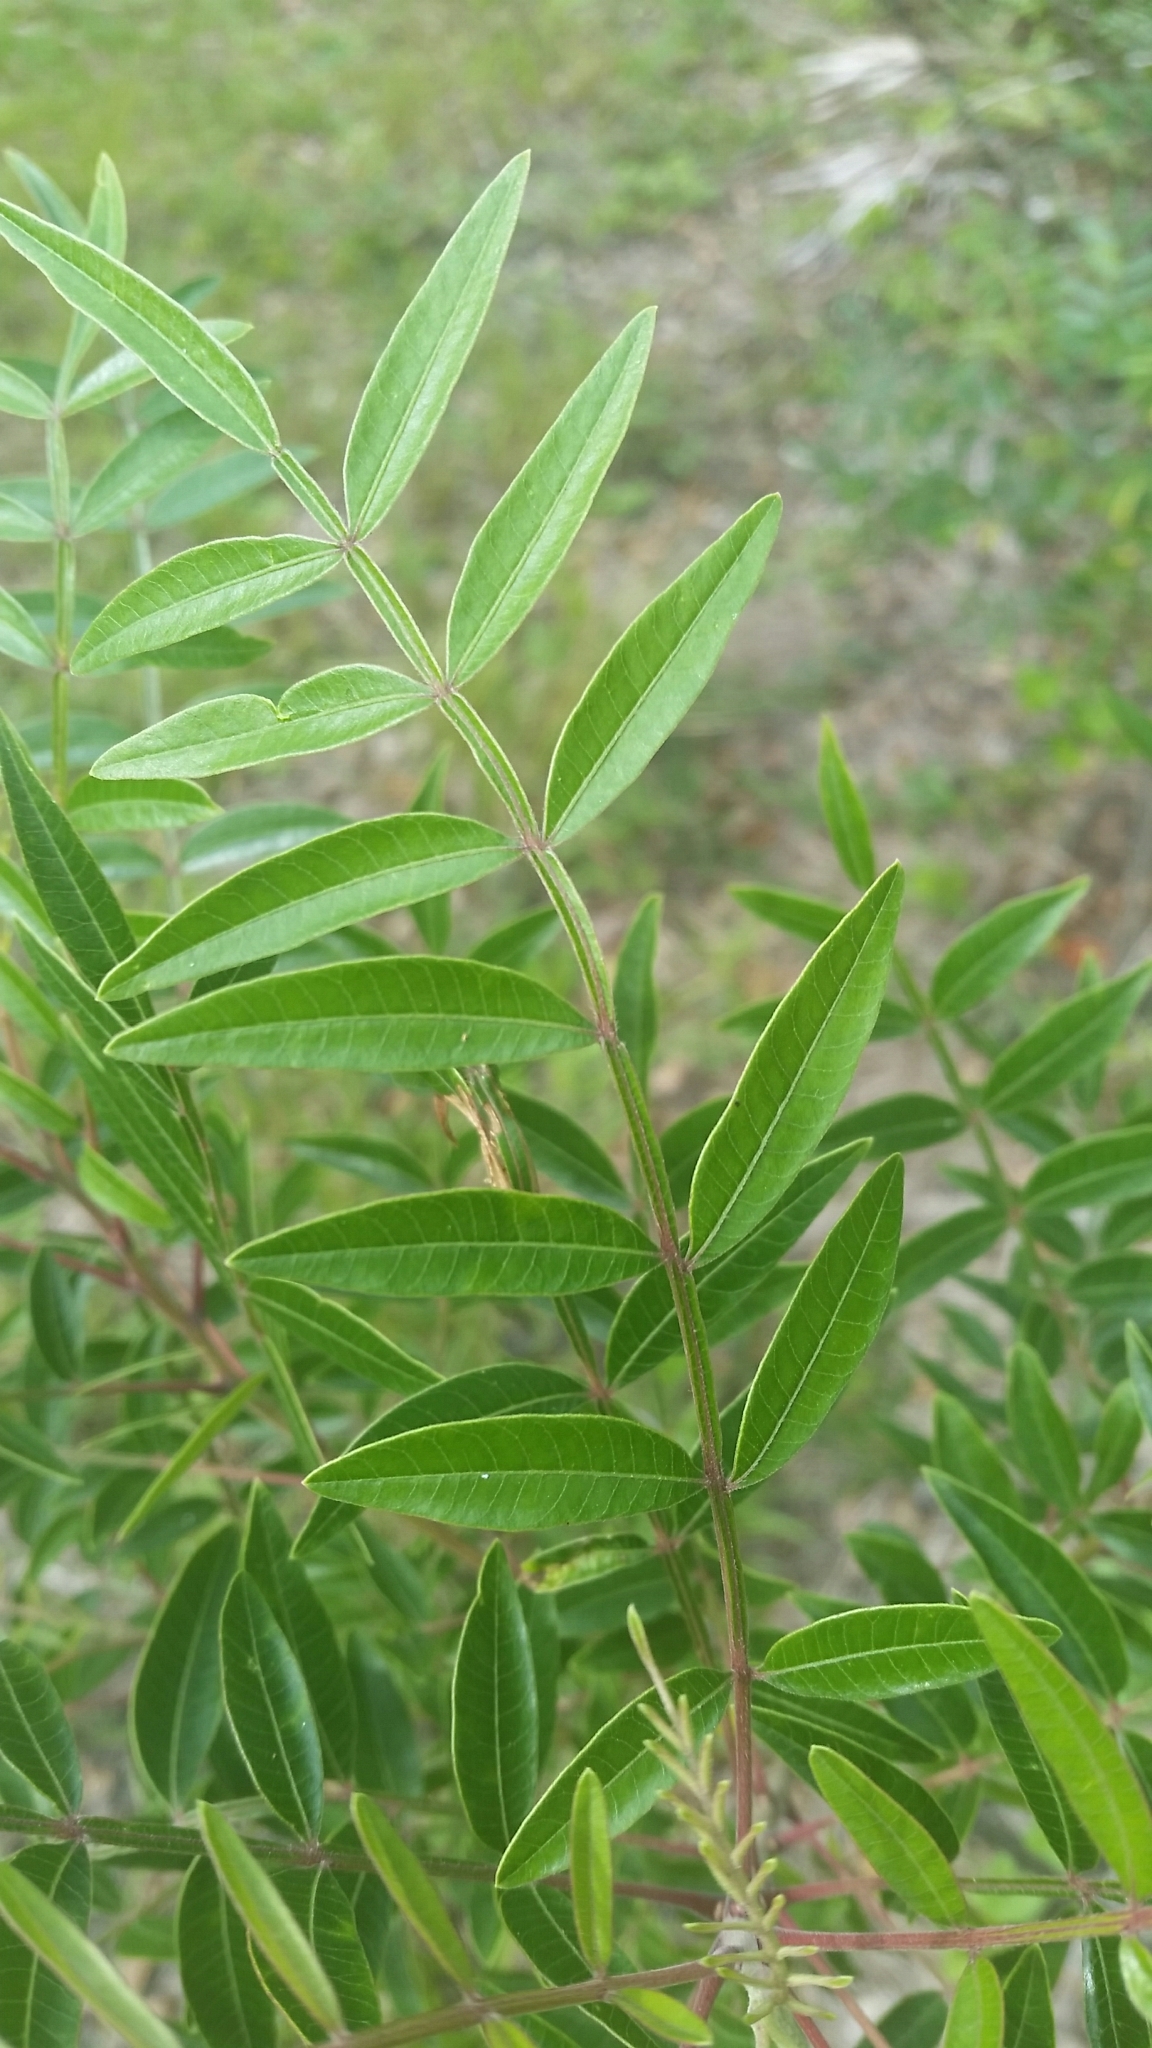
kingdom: Plantae
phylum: Tracheophyta
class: Magnoliopsida
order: Sapindales
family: Anacardiaceae
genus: Rhus
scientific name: Rhus copallina
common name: Shining sumac
